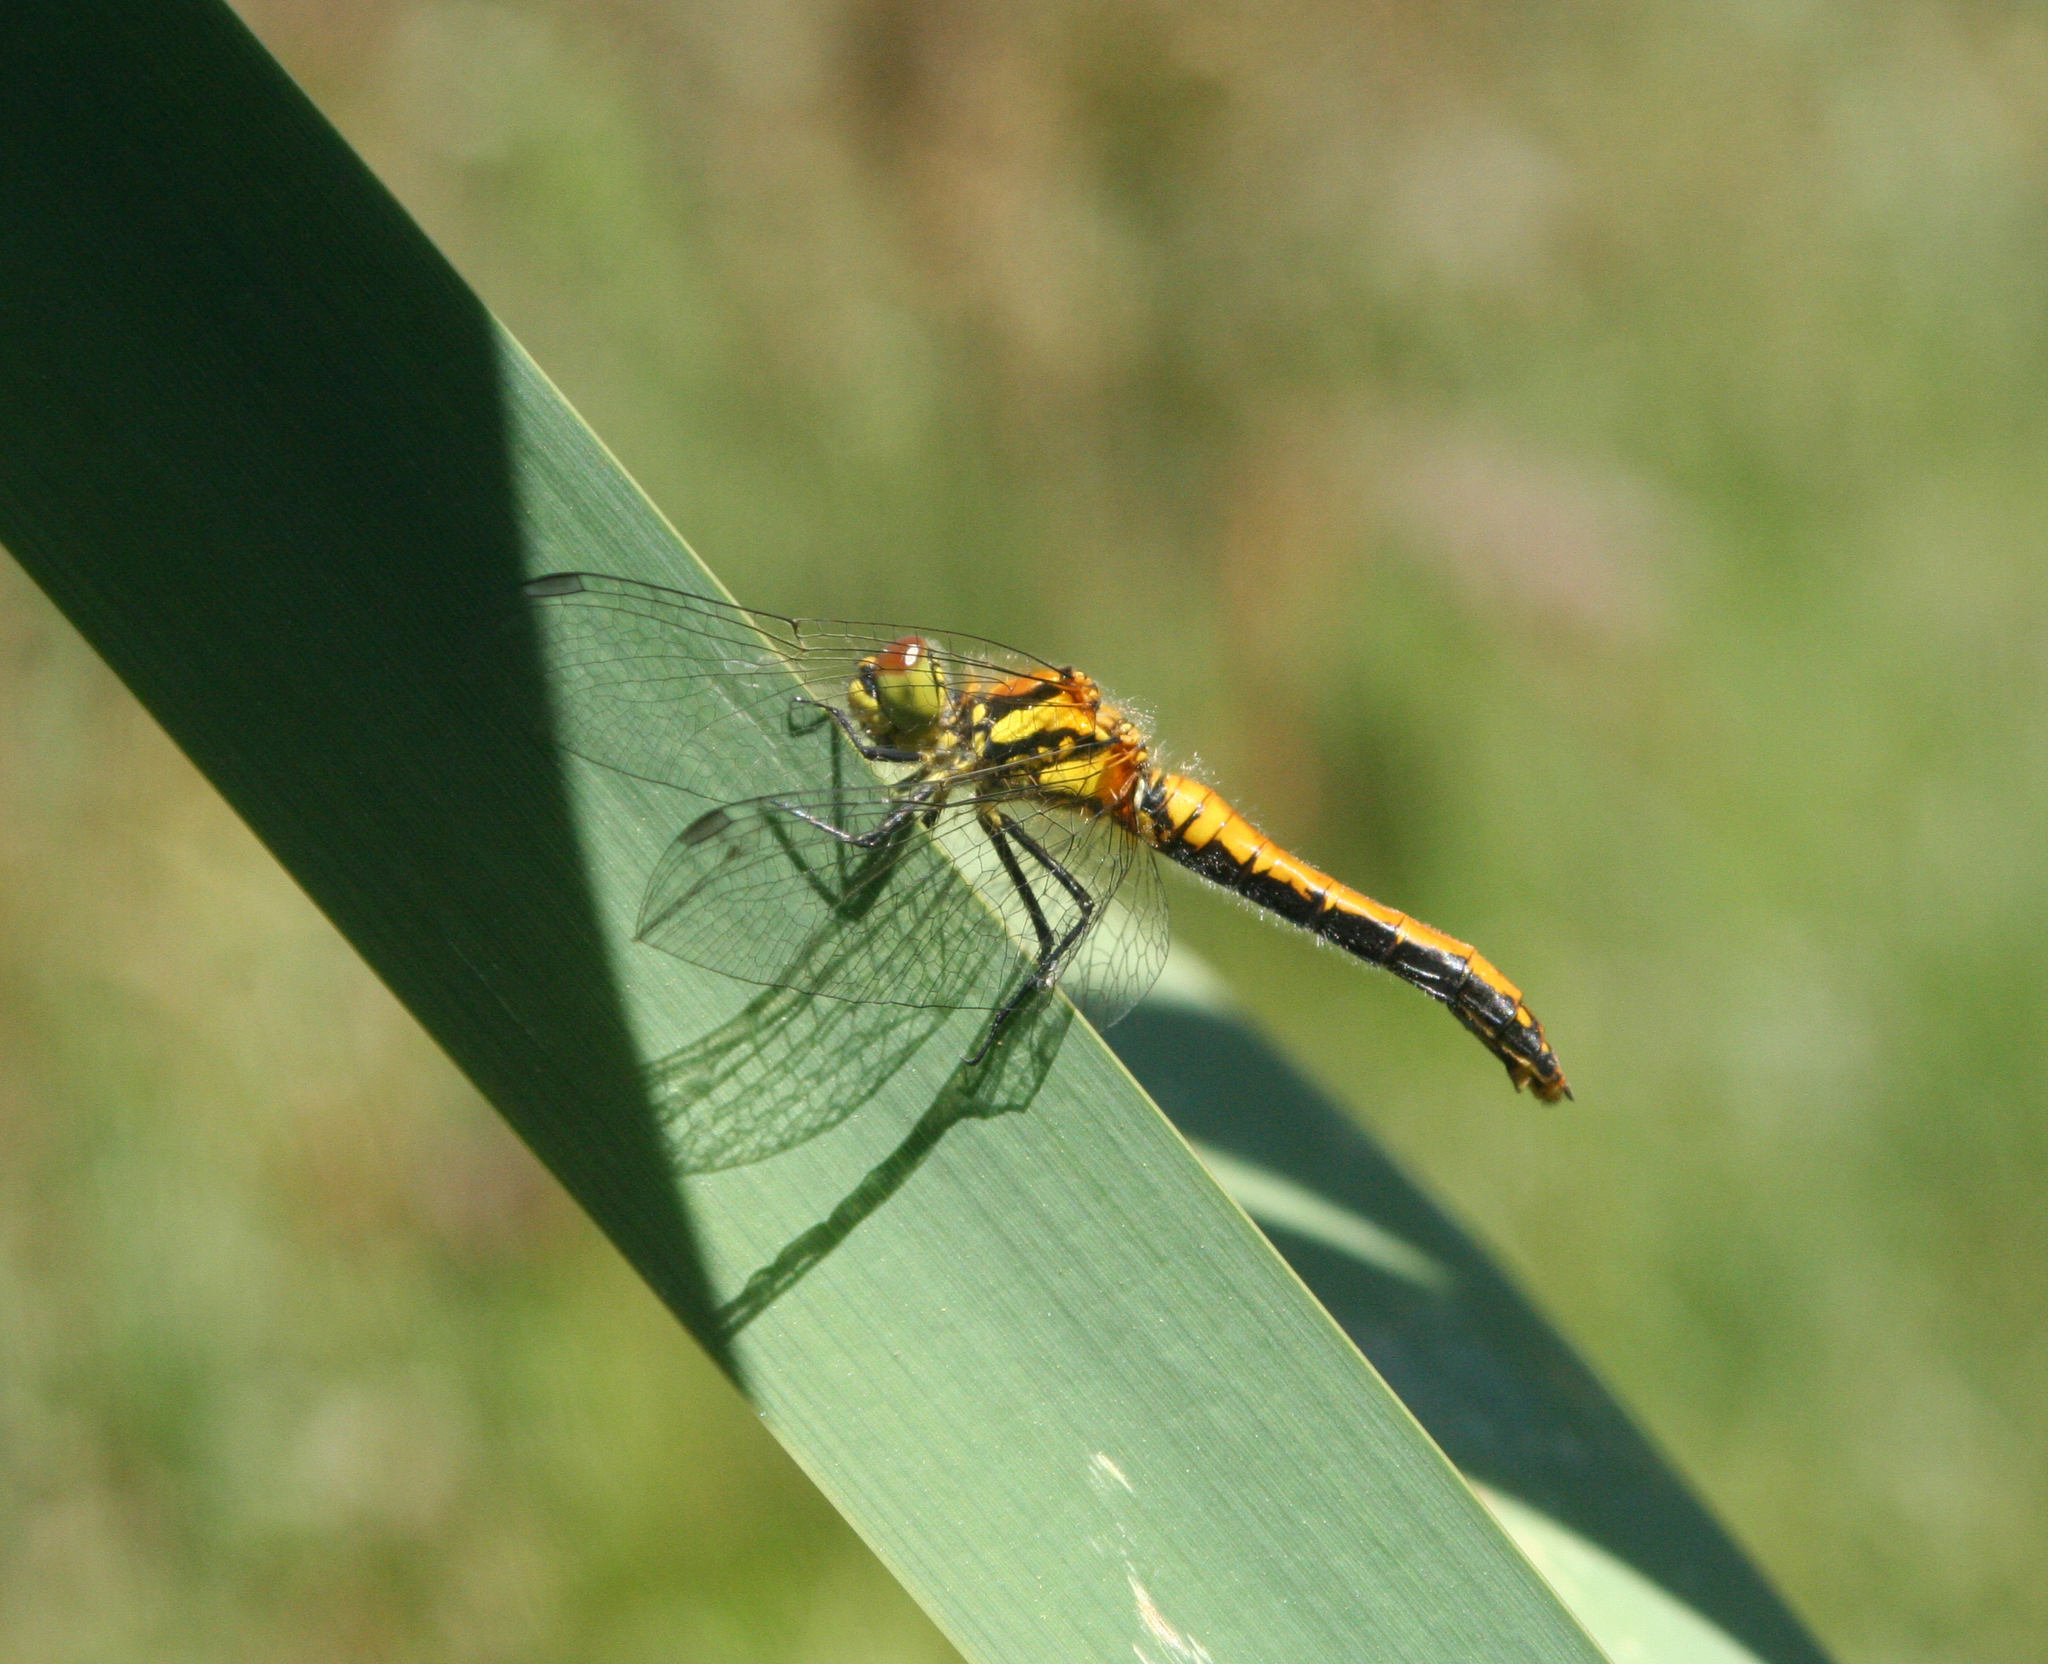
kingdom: Animalia
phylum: Arthropoda
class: Insecta
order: Odonata
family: Libellulidae
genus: Sympetrum
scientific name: Sympetrum danae
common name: Black darter
